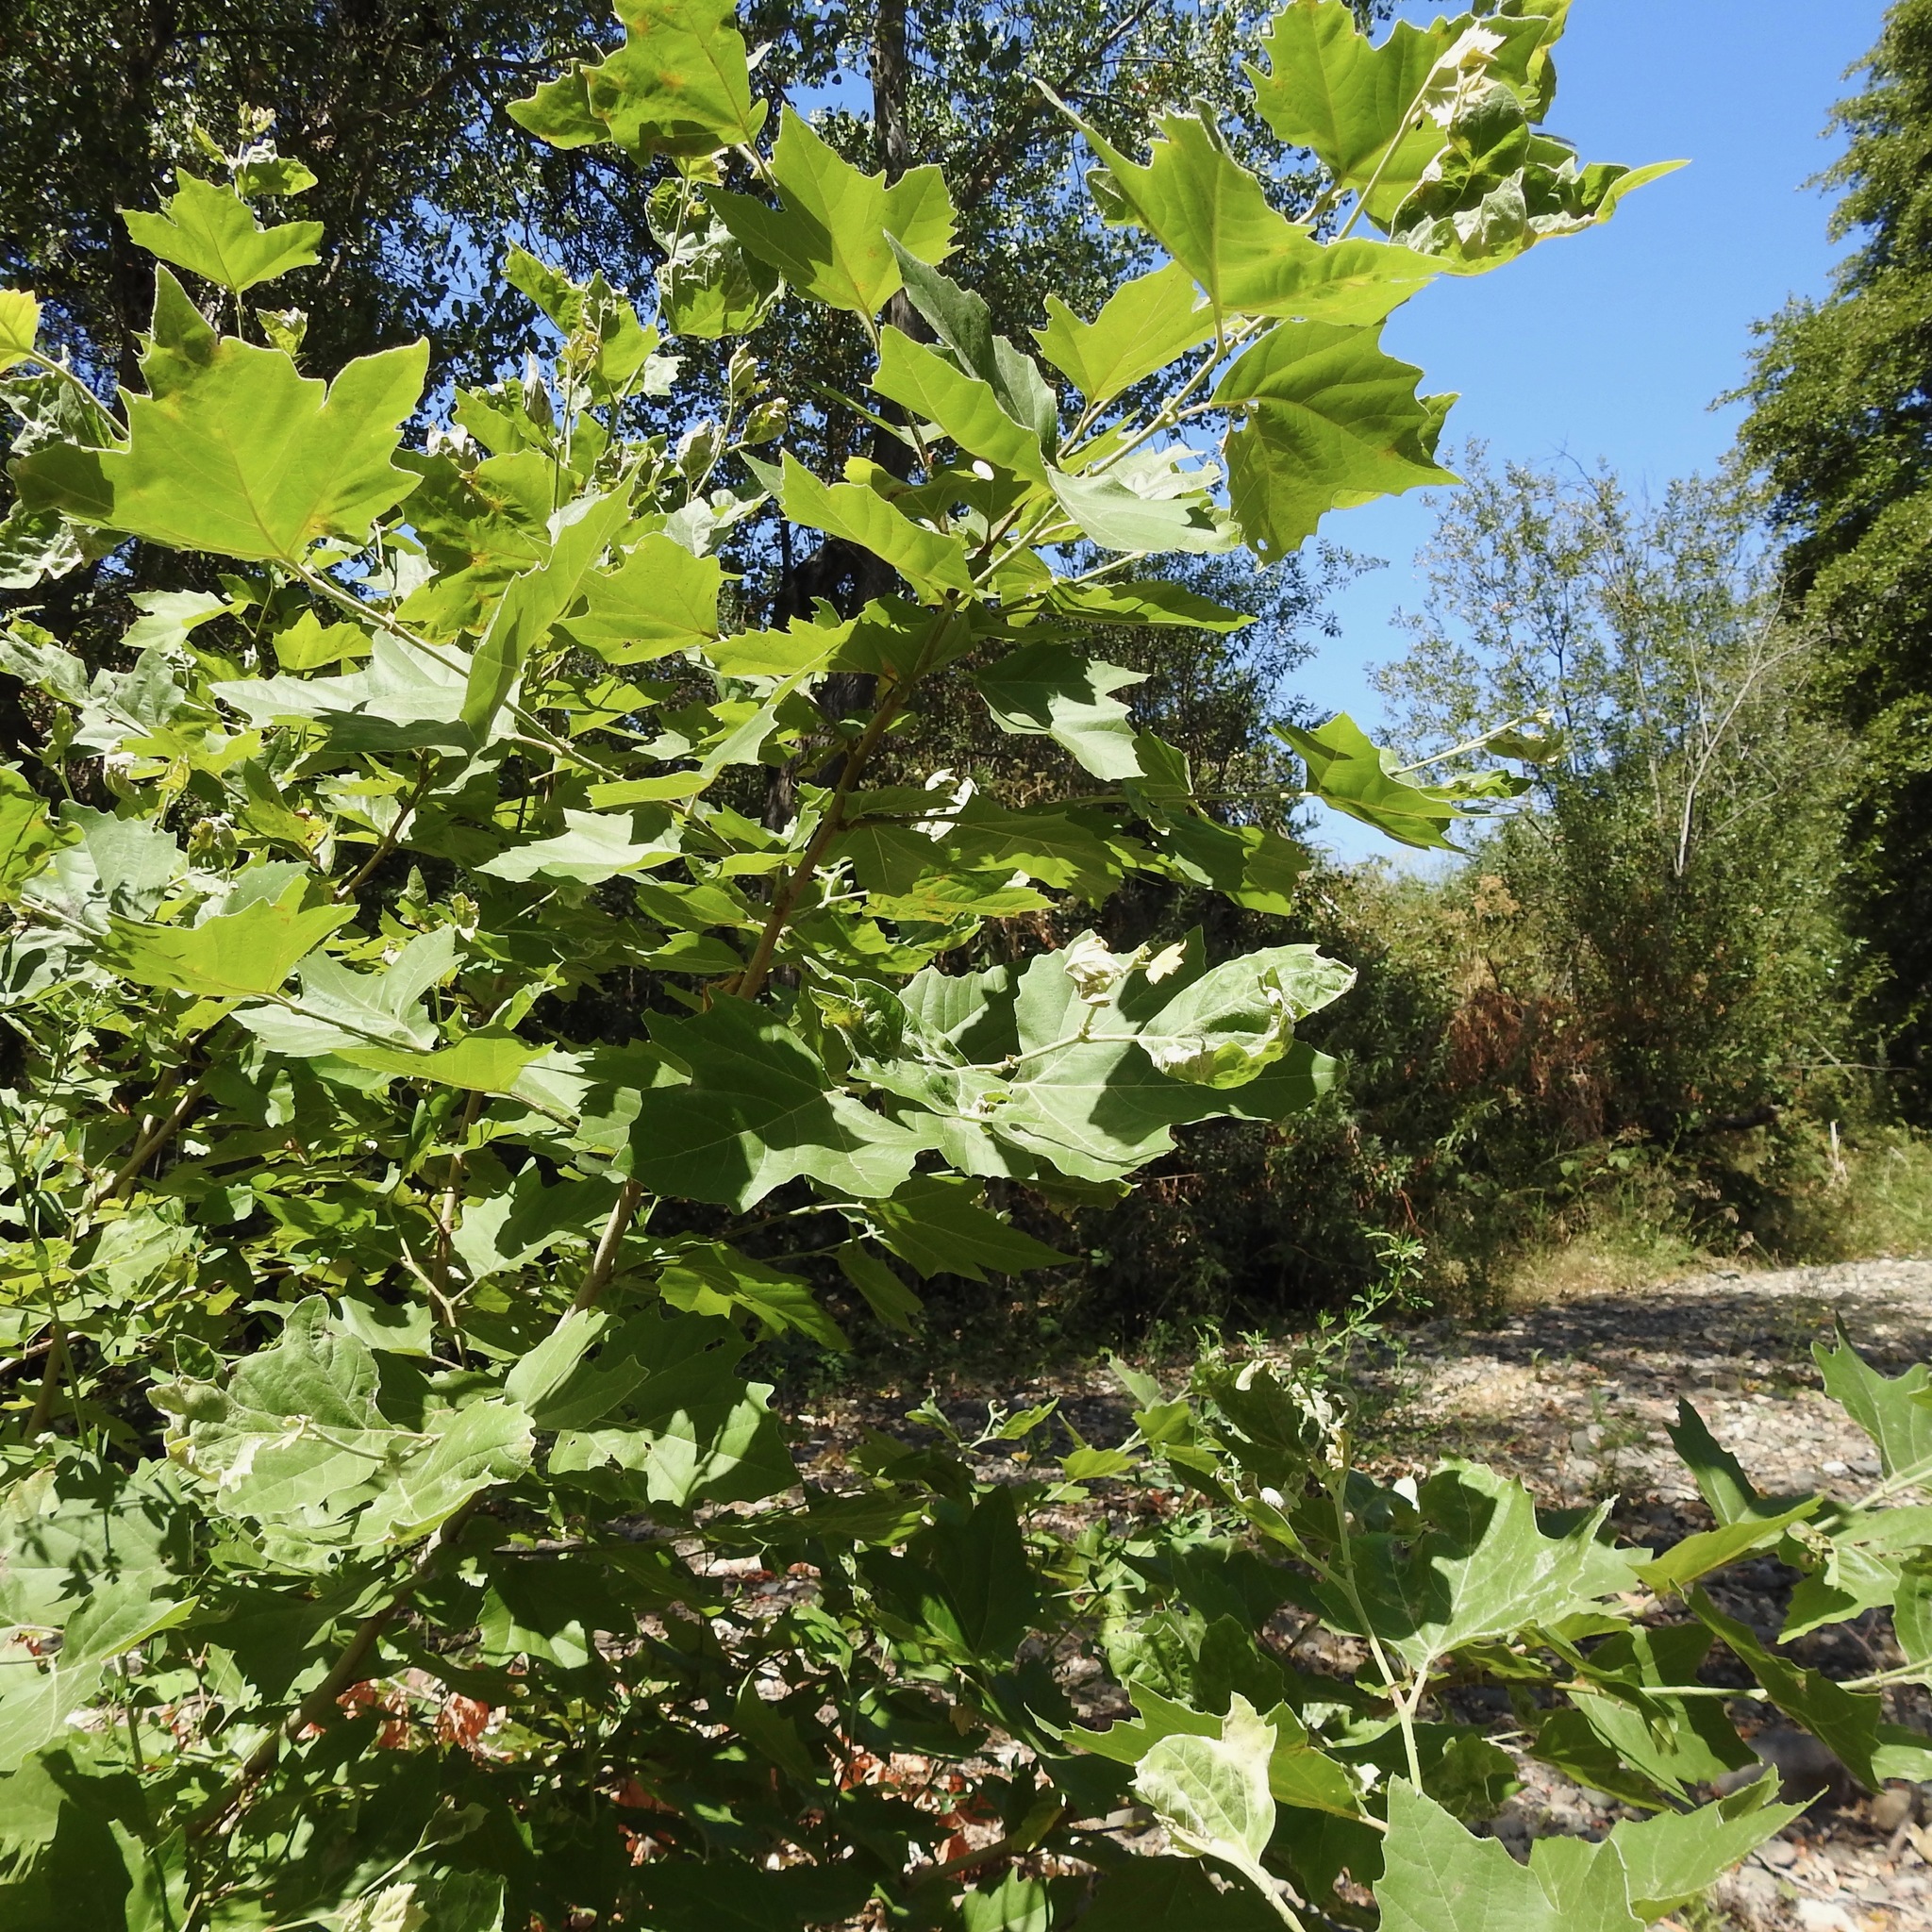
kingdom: Plantae
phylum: Tracheophyta
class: Magnoliopsida
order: Proteales
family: Platanaceae
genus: Platanus
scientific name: Platanus occidentalis
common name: American sycamore
